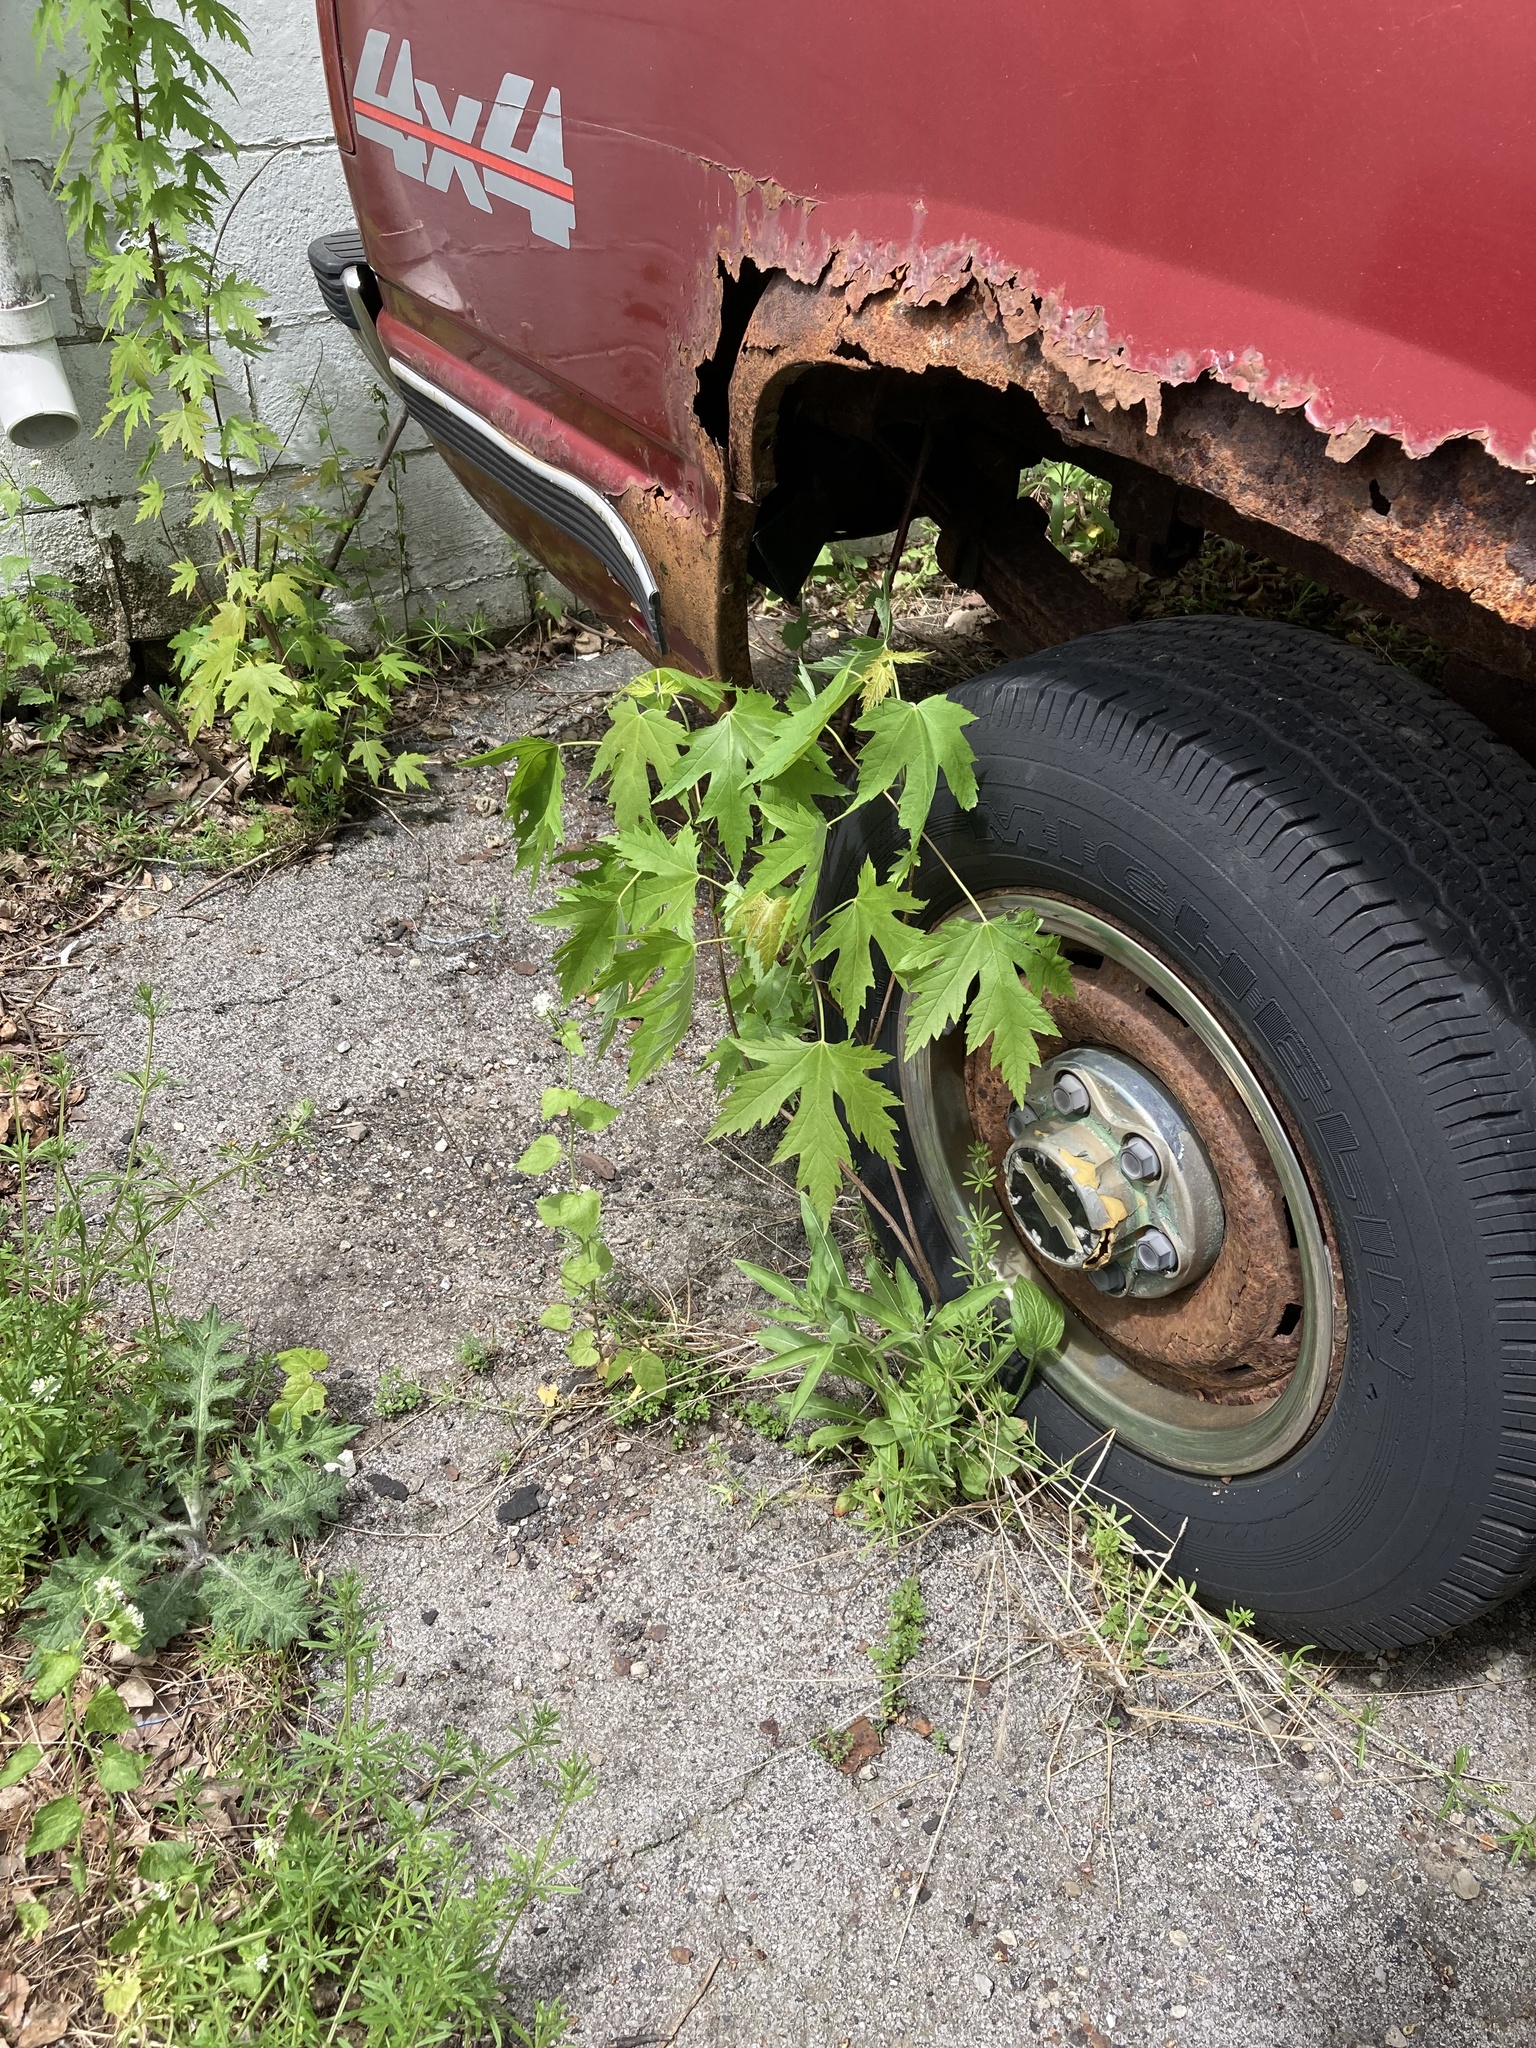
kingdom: Plantae
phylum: Tracheophyta
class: Magnoliopsida
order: Sapindales
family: Sapindaceae
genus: Acer
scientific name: Acer saccharinum
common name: Silver maple
